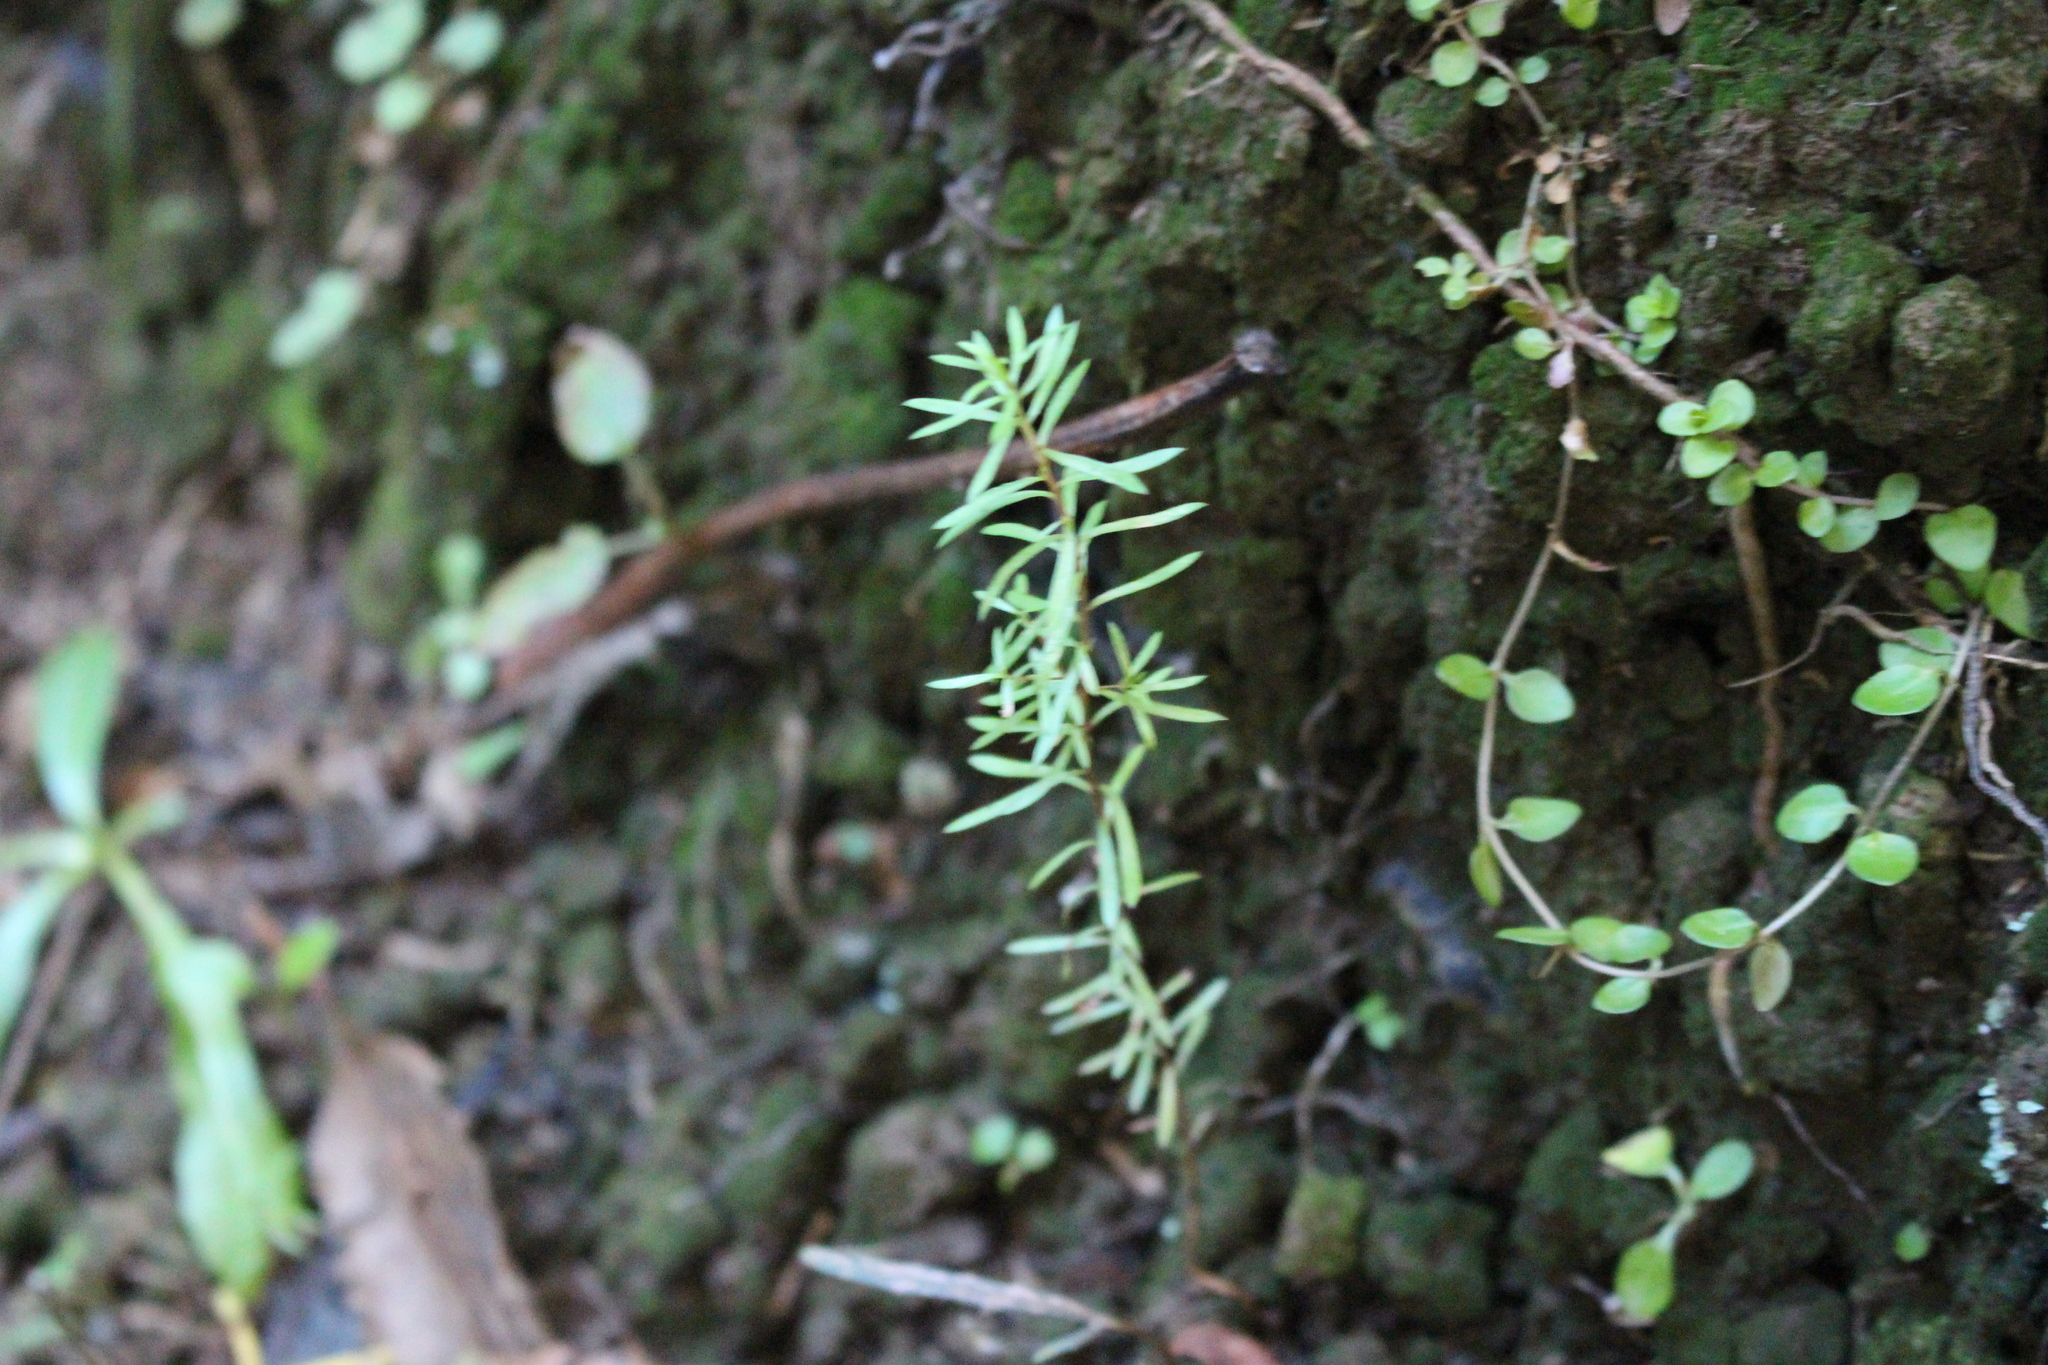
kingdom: Plantae
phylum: Tracheophyta
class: Magnoliopsida
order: Myrtales
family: Myrtaceae
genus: Kunzea
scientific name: Kunzea robusta
